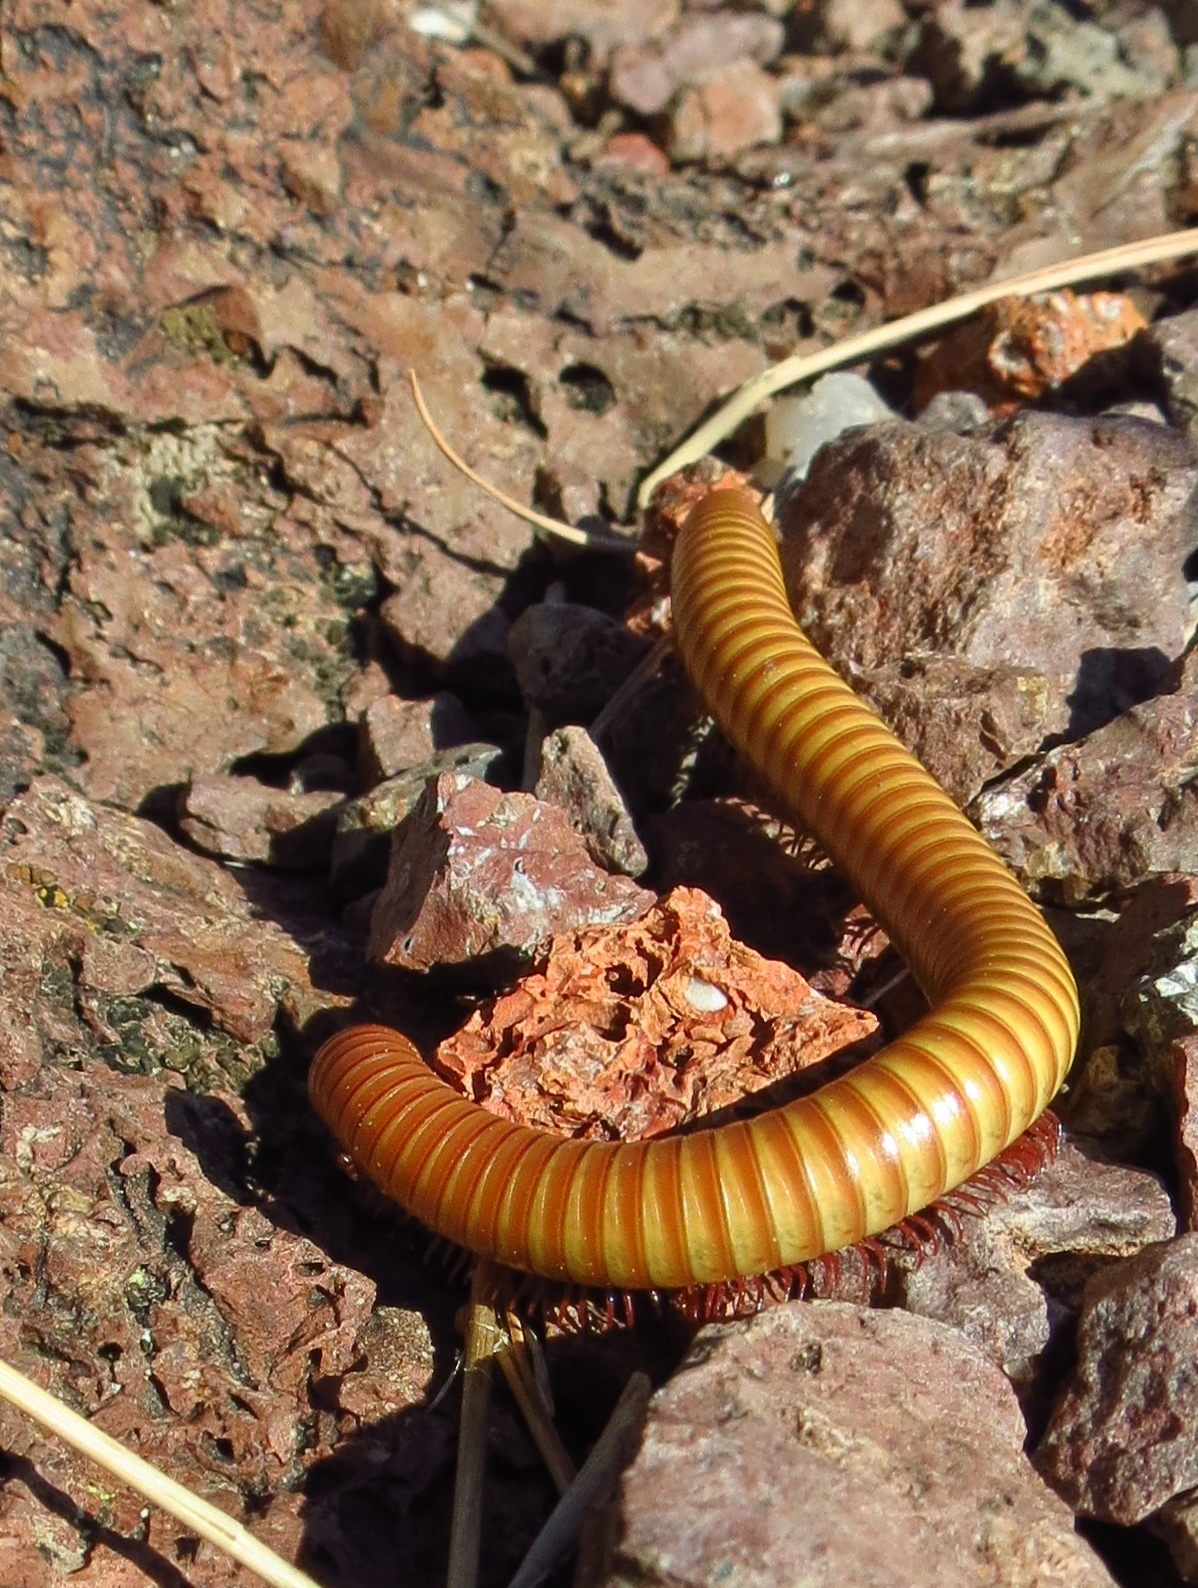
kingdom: Animalia
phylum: Arthropoda
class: Diplopoda
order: Spirostreptida
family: Spirostreptidae
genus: Orthoporus
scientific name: Orthoporus ornatus
